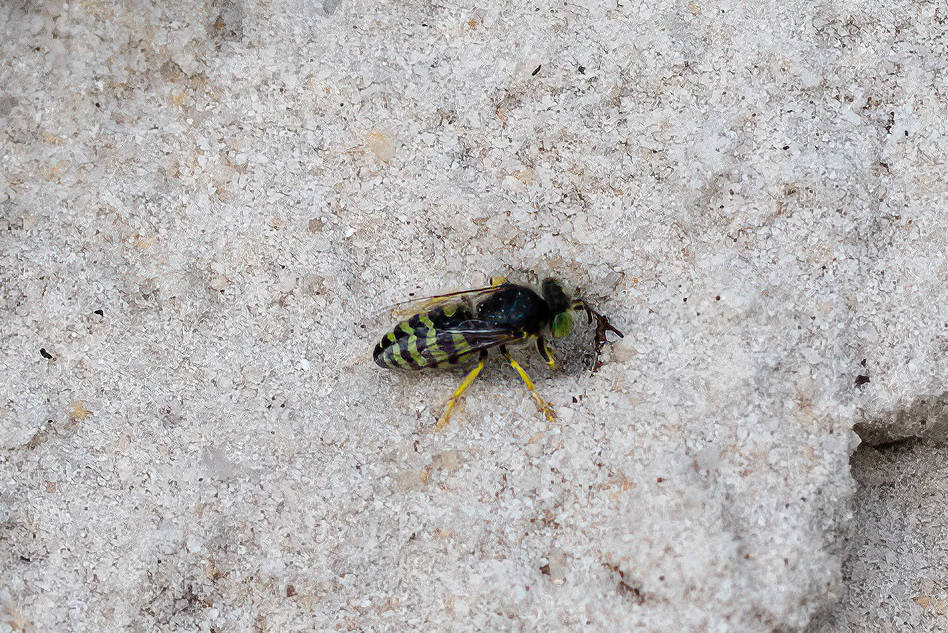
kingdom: Animalia
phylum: Arthropoda
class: Insecta
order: Hymenoptera
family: Crabronidae
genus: Bembix
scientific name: Bembix americana
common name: American sand wasp
